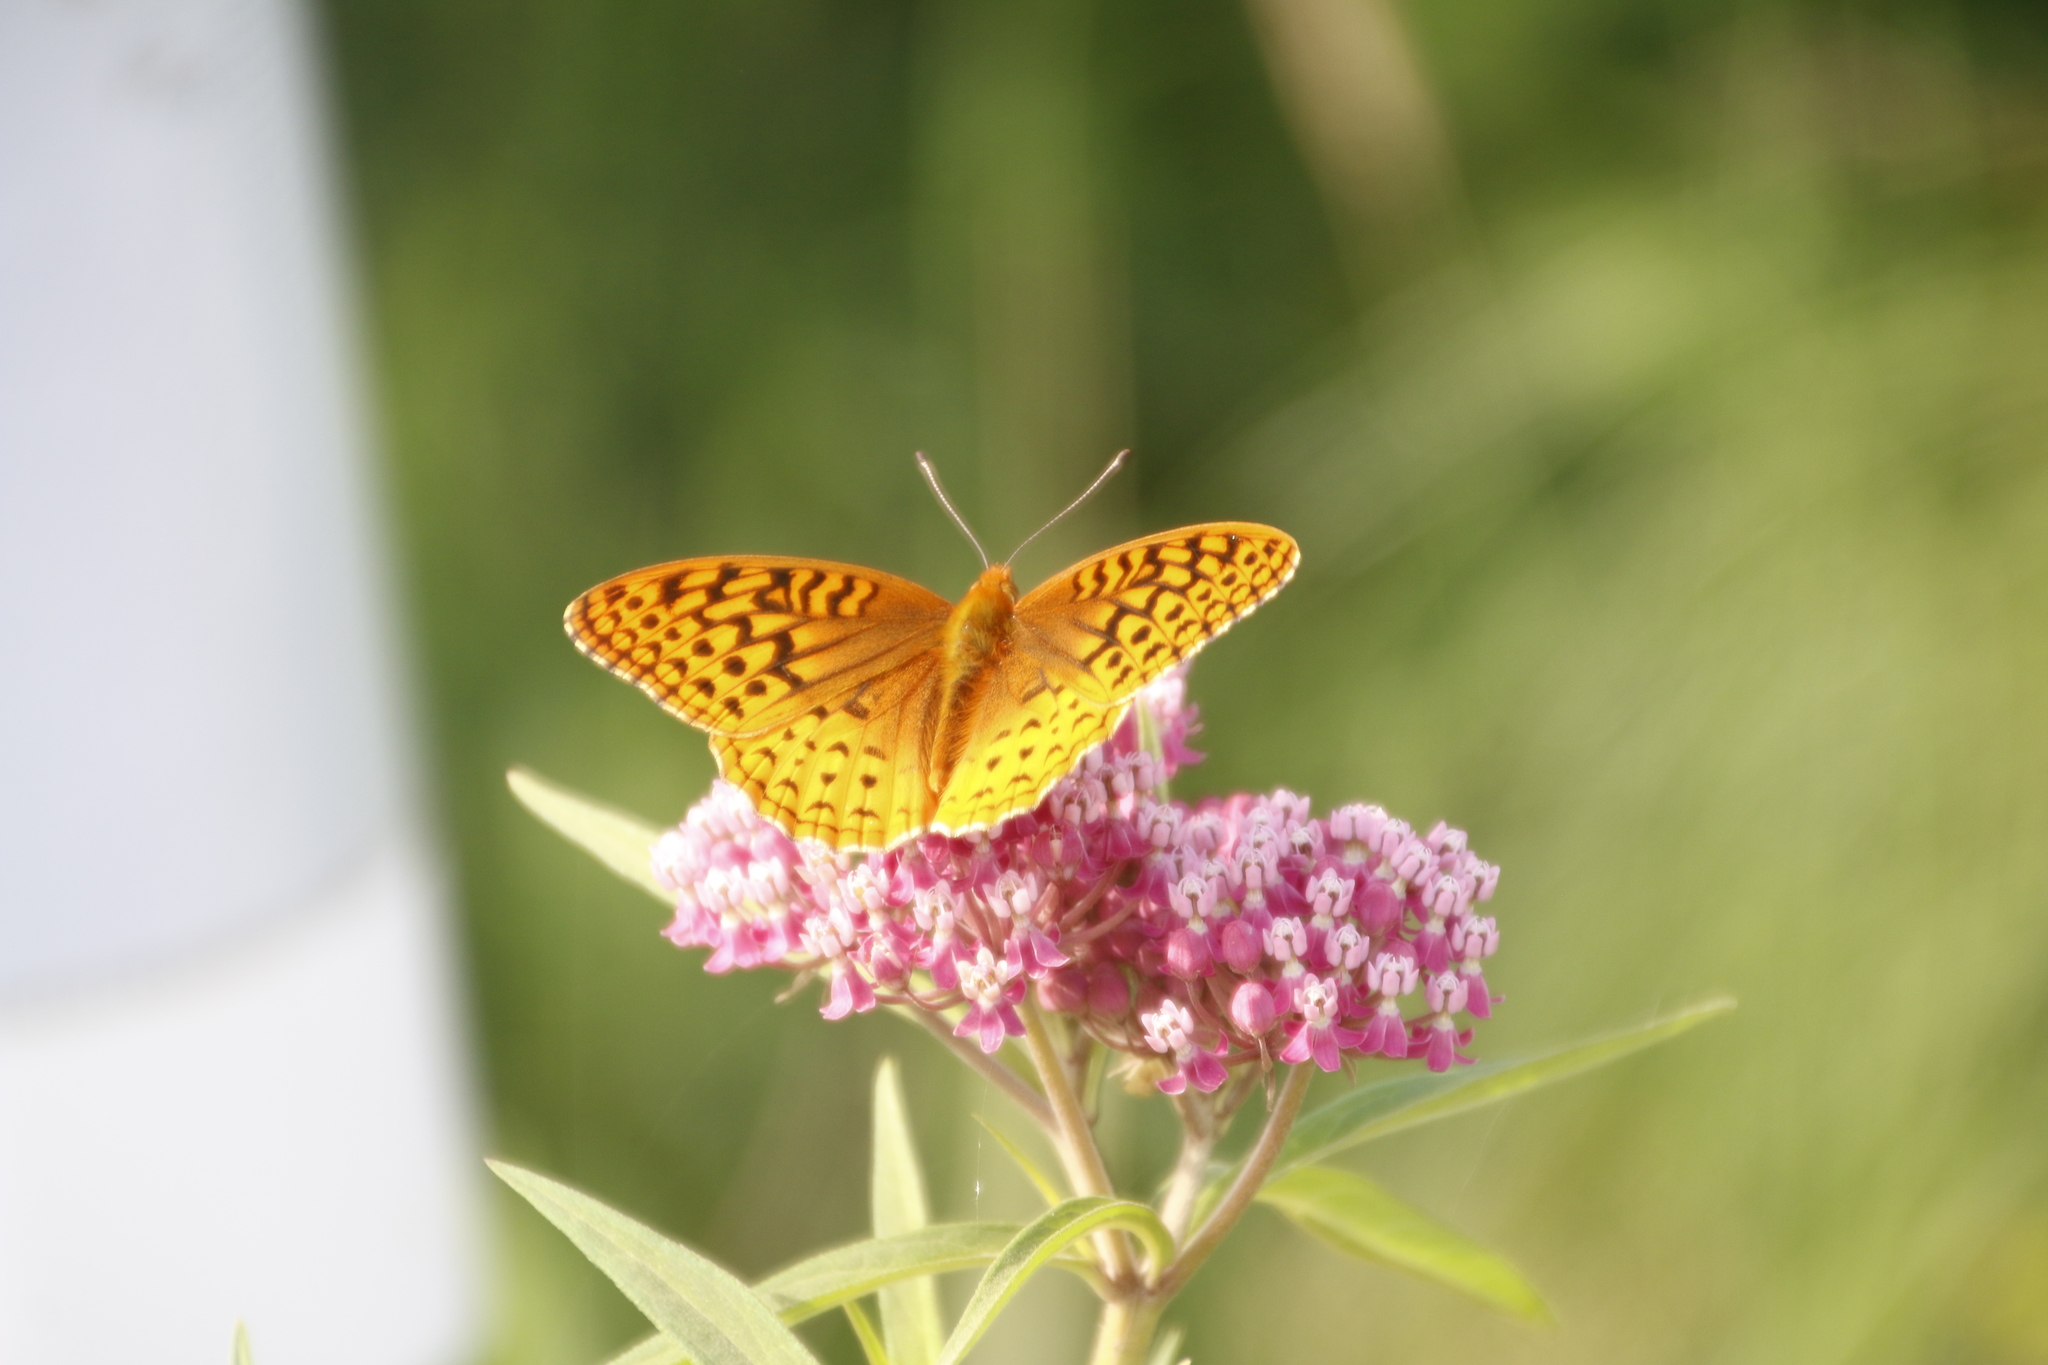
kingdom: Animalia
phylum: Arthropoda
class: Insecta
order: Lepidoptera
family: Nymphalidae
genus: Speyeria
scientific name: Speyeria cybele
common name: Great spangled fritillary
